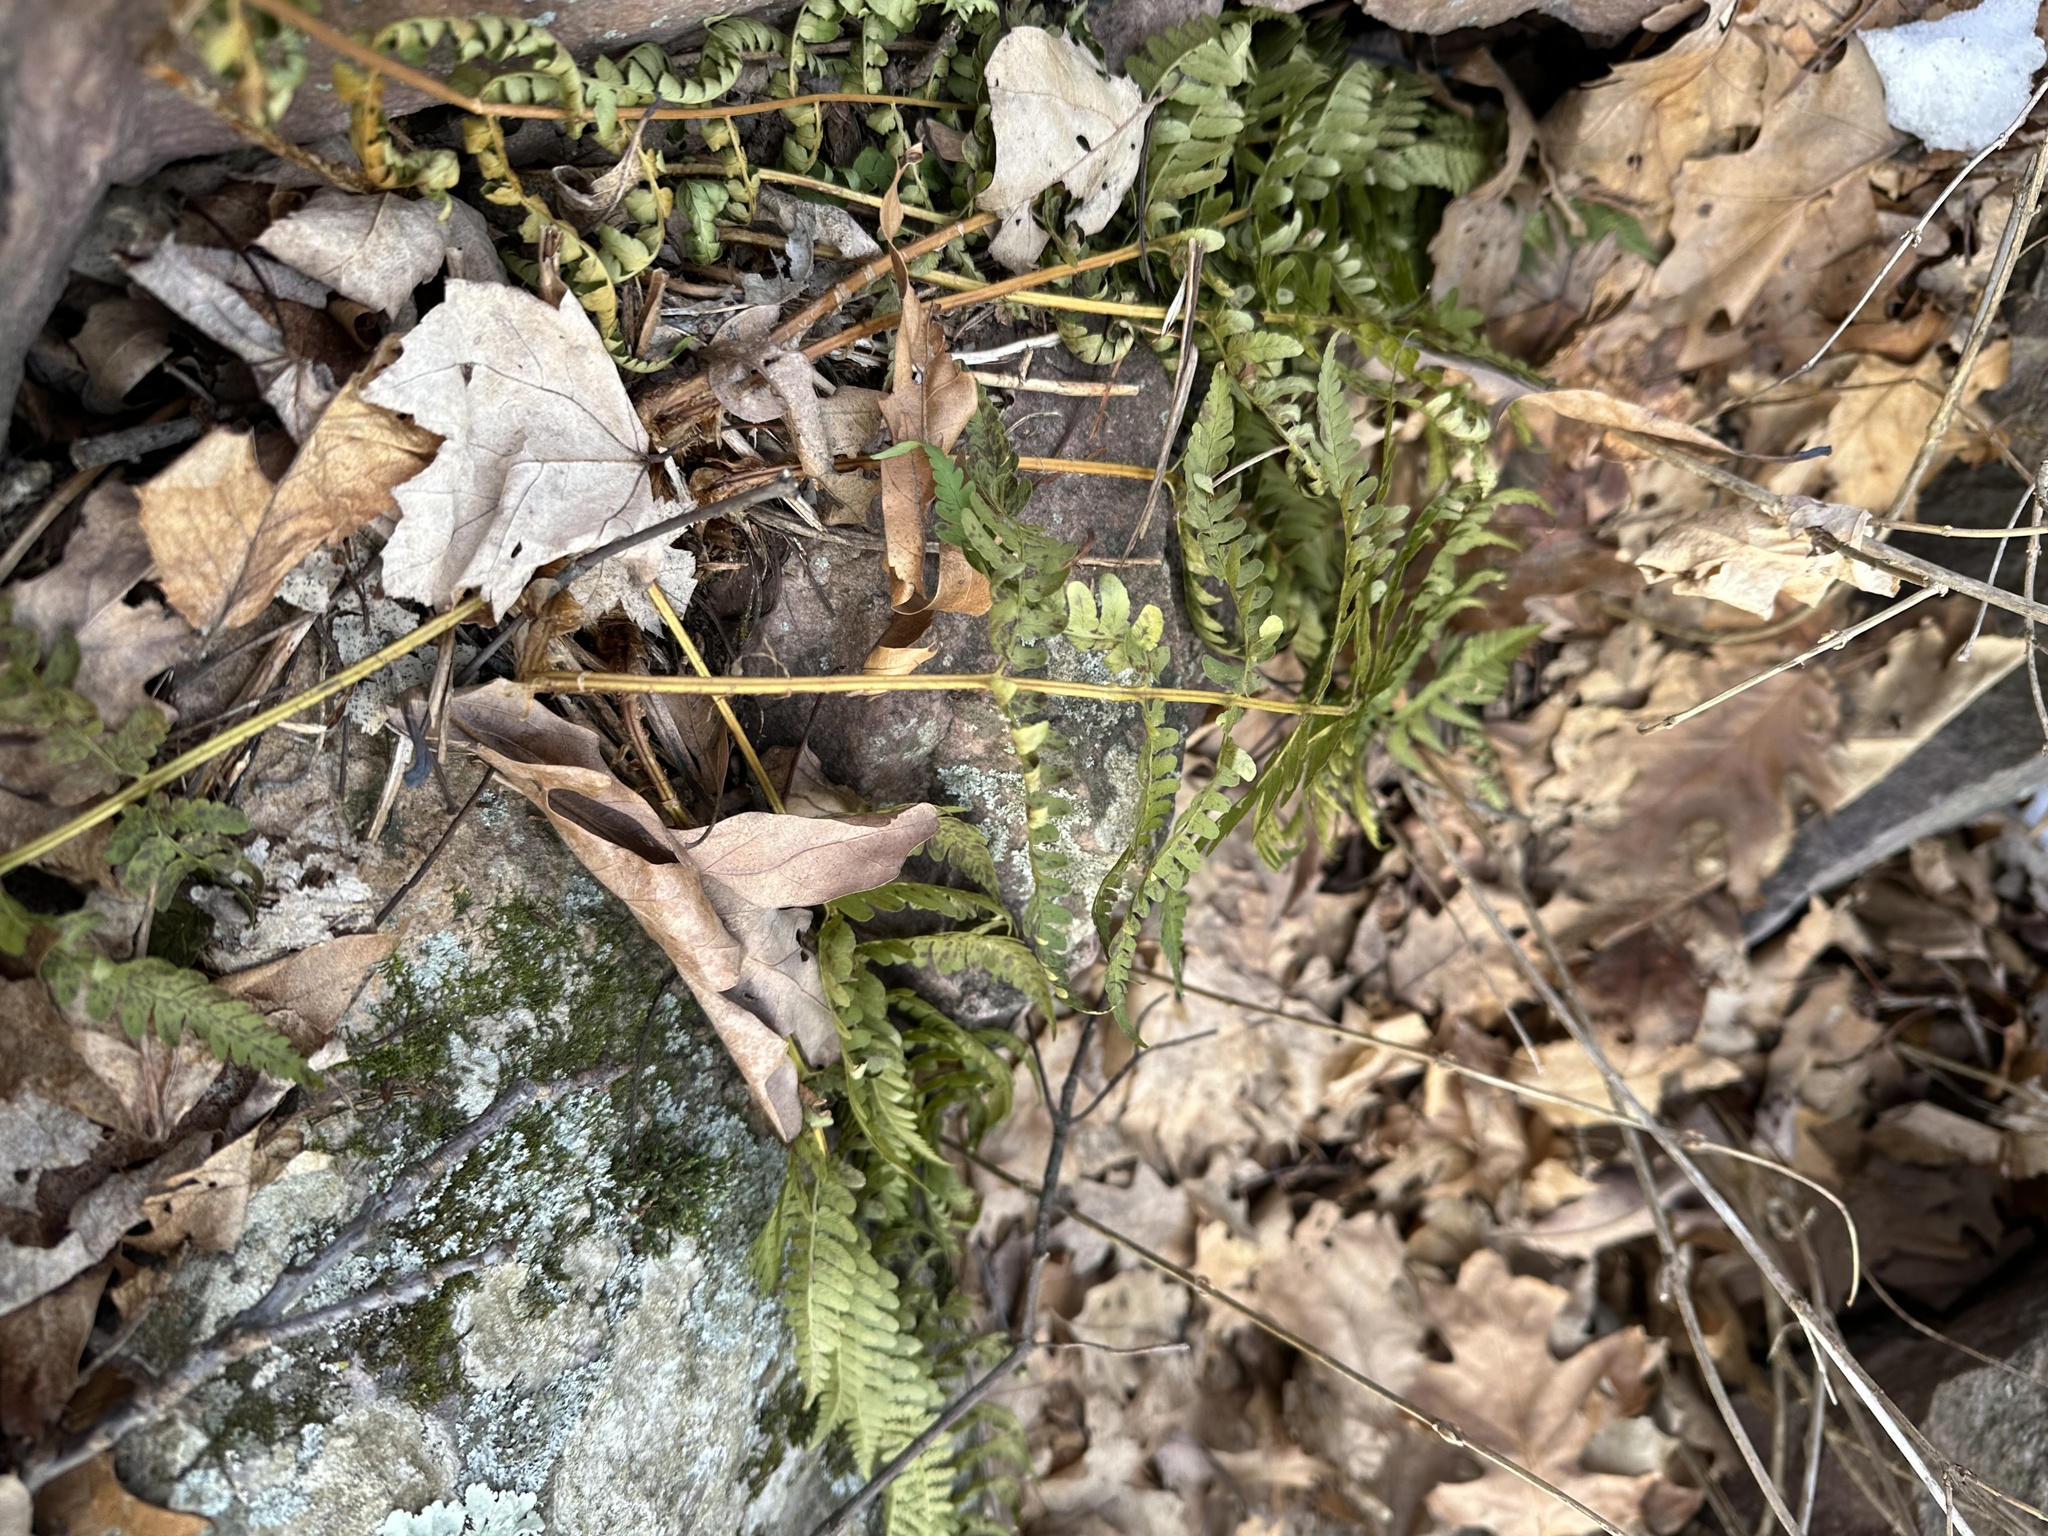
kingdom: Plantae
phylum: Tracheophyta
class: Polypodiopsida
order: Polypodiales
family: Dryopteridaceae
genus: Dryopteris
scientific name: Dryopteris marginalis
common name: Marginal wood fern
